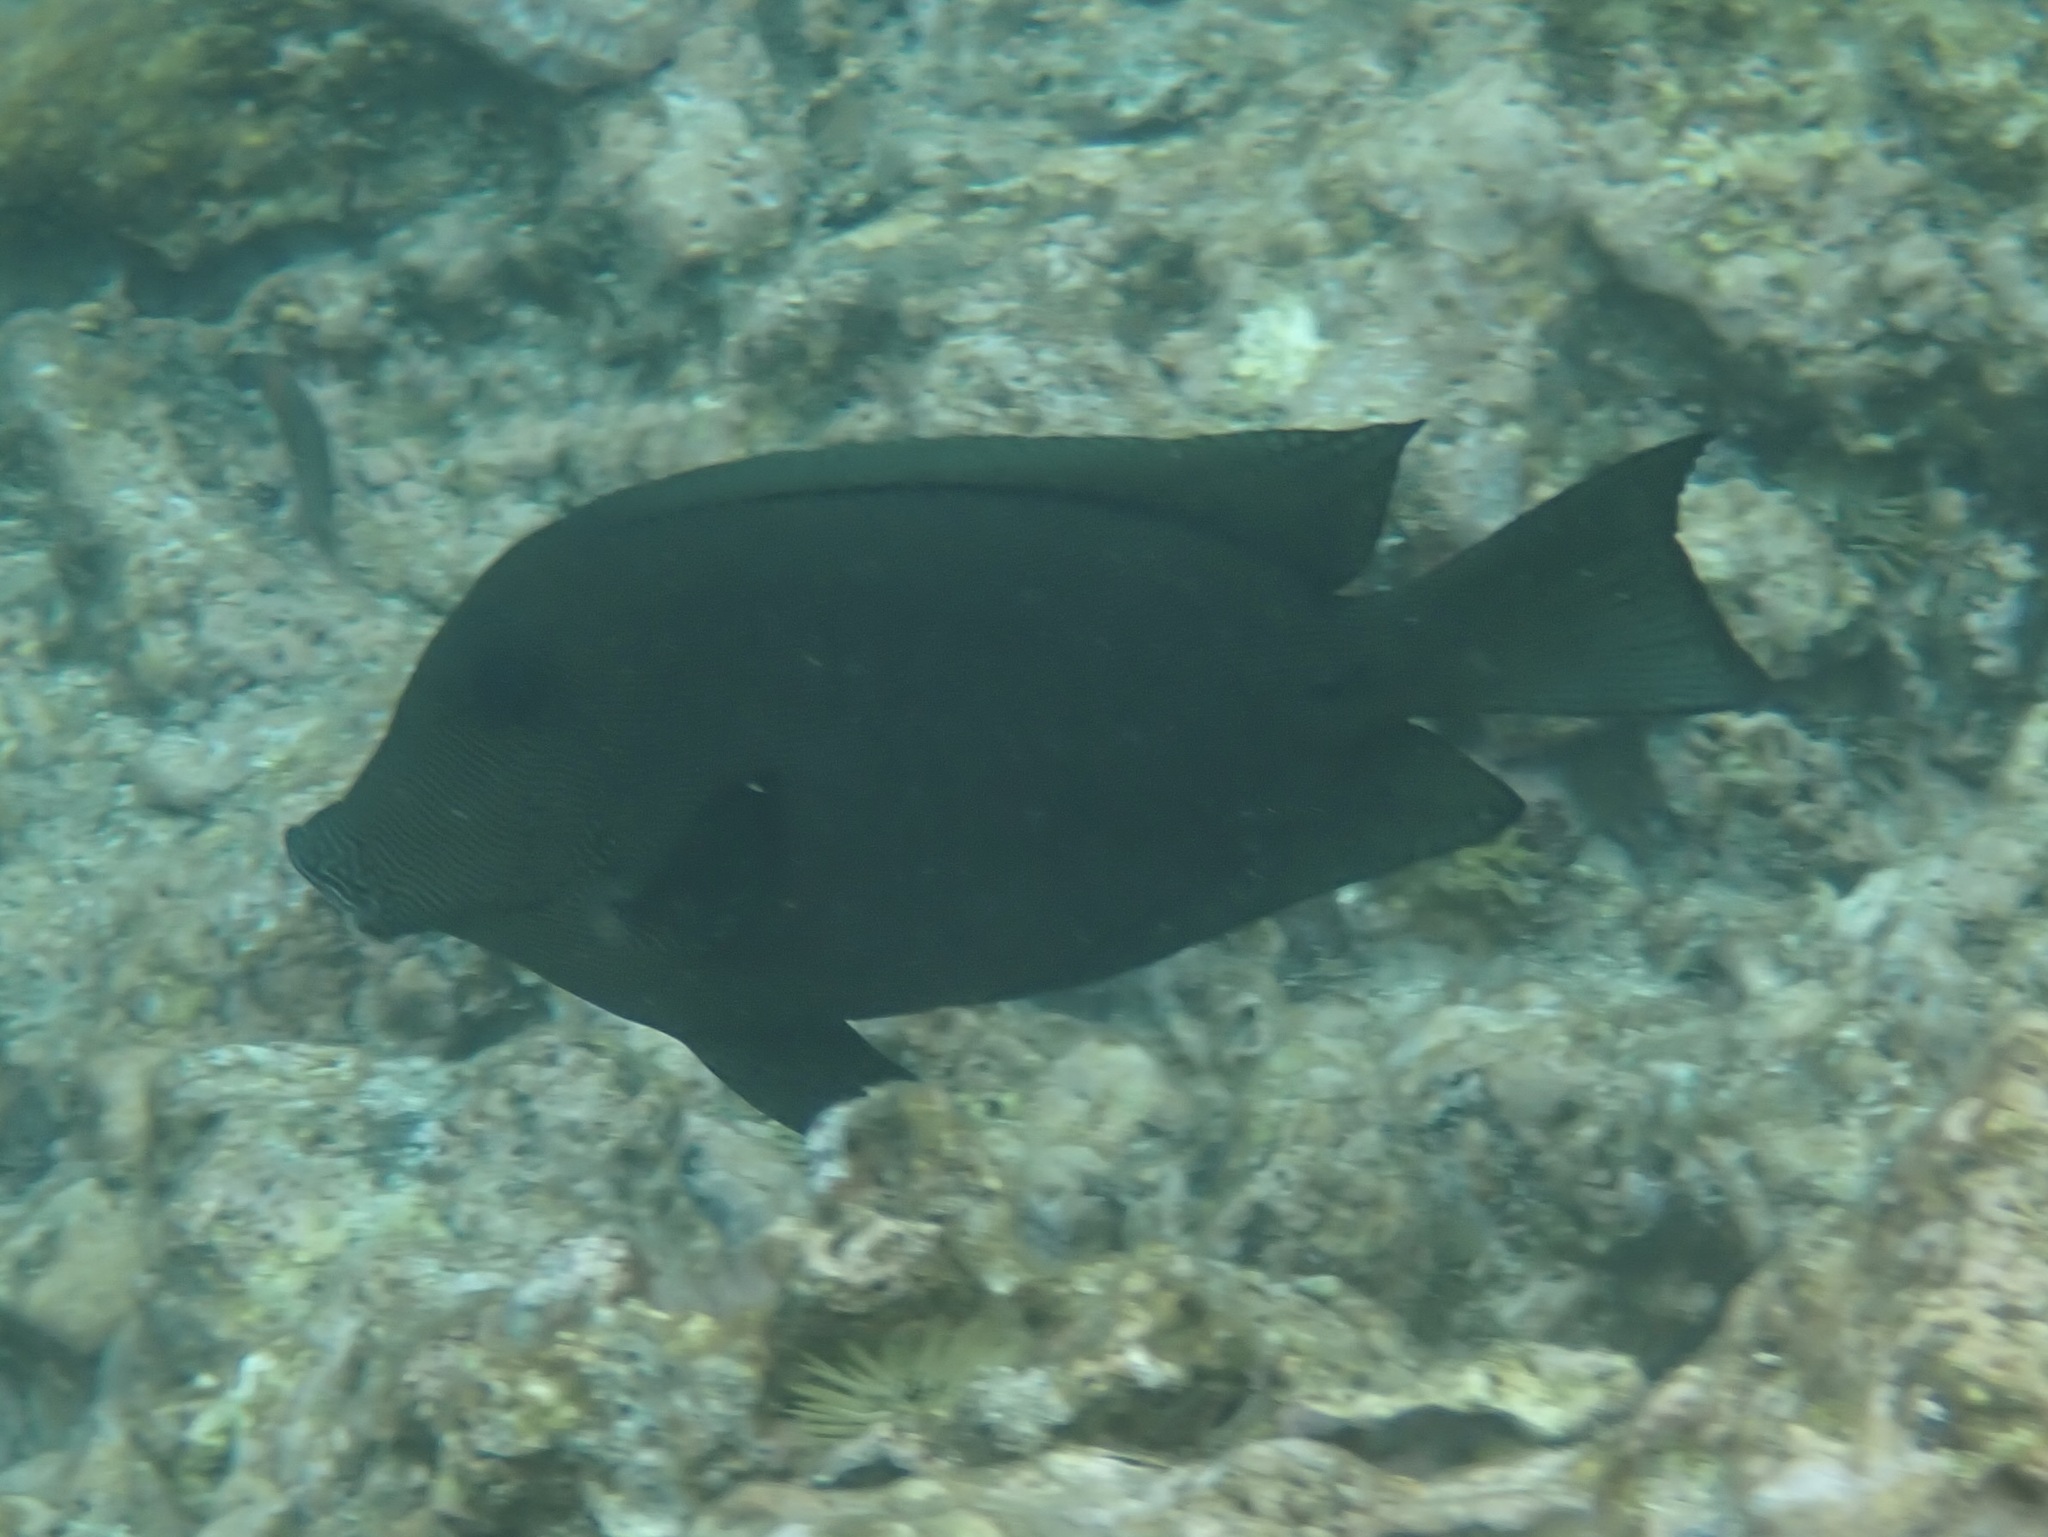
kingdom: Animalia
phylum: Chordata
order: Perciformes
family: Acanthuridae
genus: Ctenochaetus
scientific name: Ctenochaetus hawaiiensis
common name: Hawaiian surgeonfish
